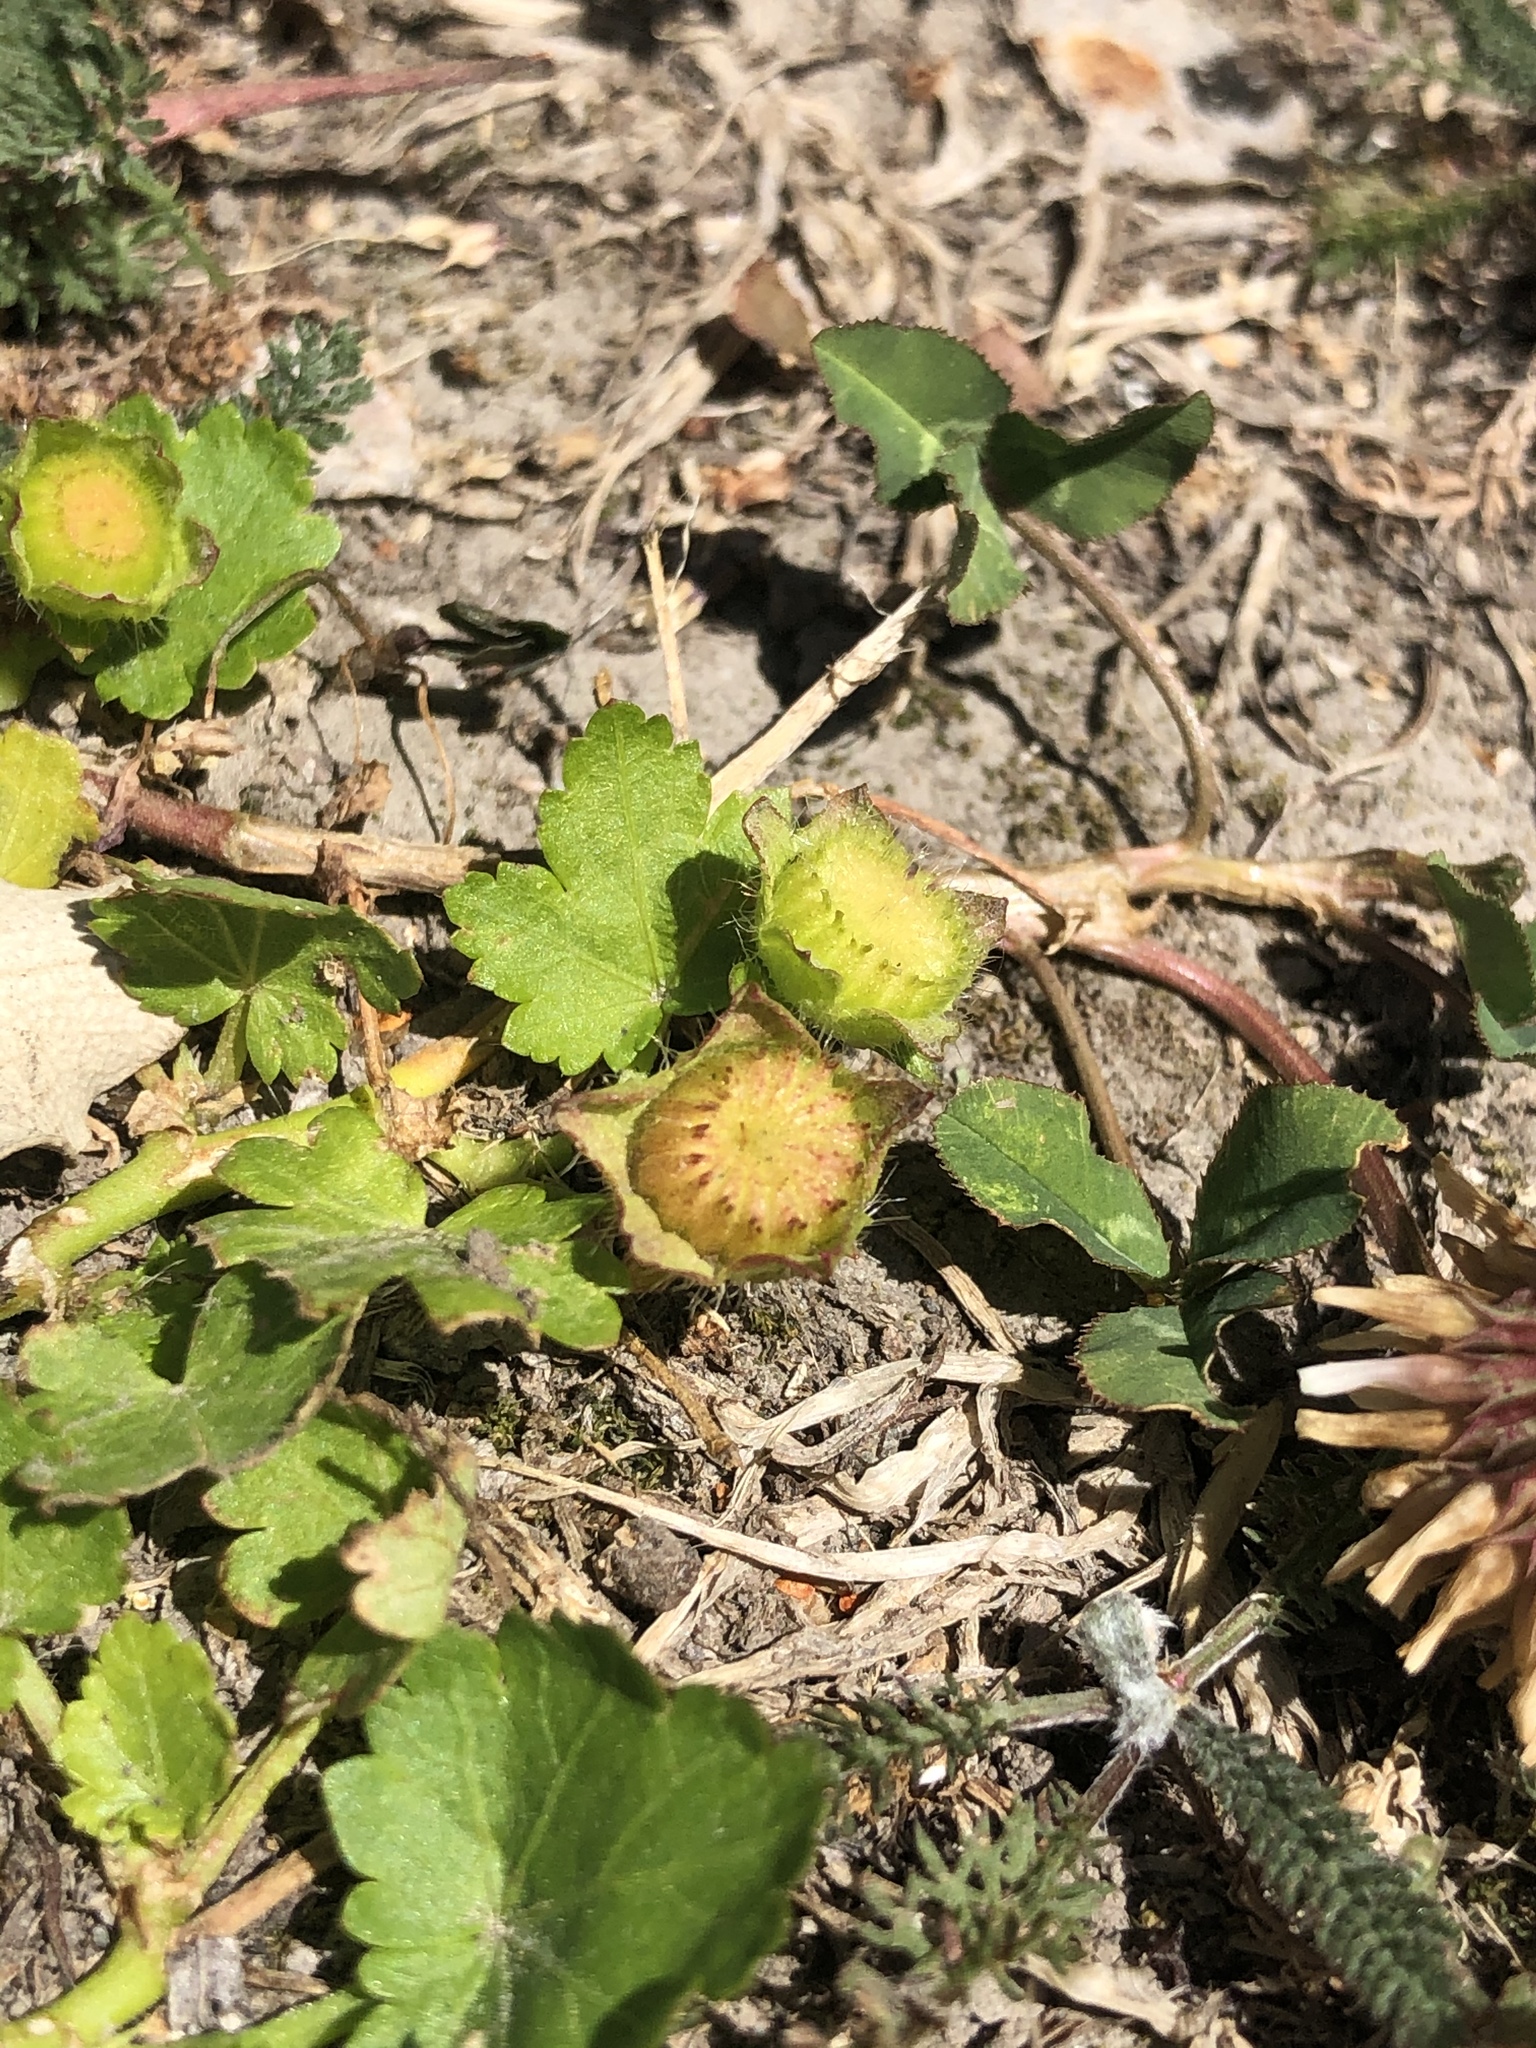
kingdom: Plantae
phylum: Tracheophyta
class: Magnoliopsida
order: Malvales
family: Malvaceae
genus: Modiola
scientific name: Modiola caroliniana
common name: Carolina bristlemallow
